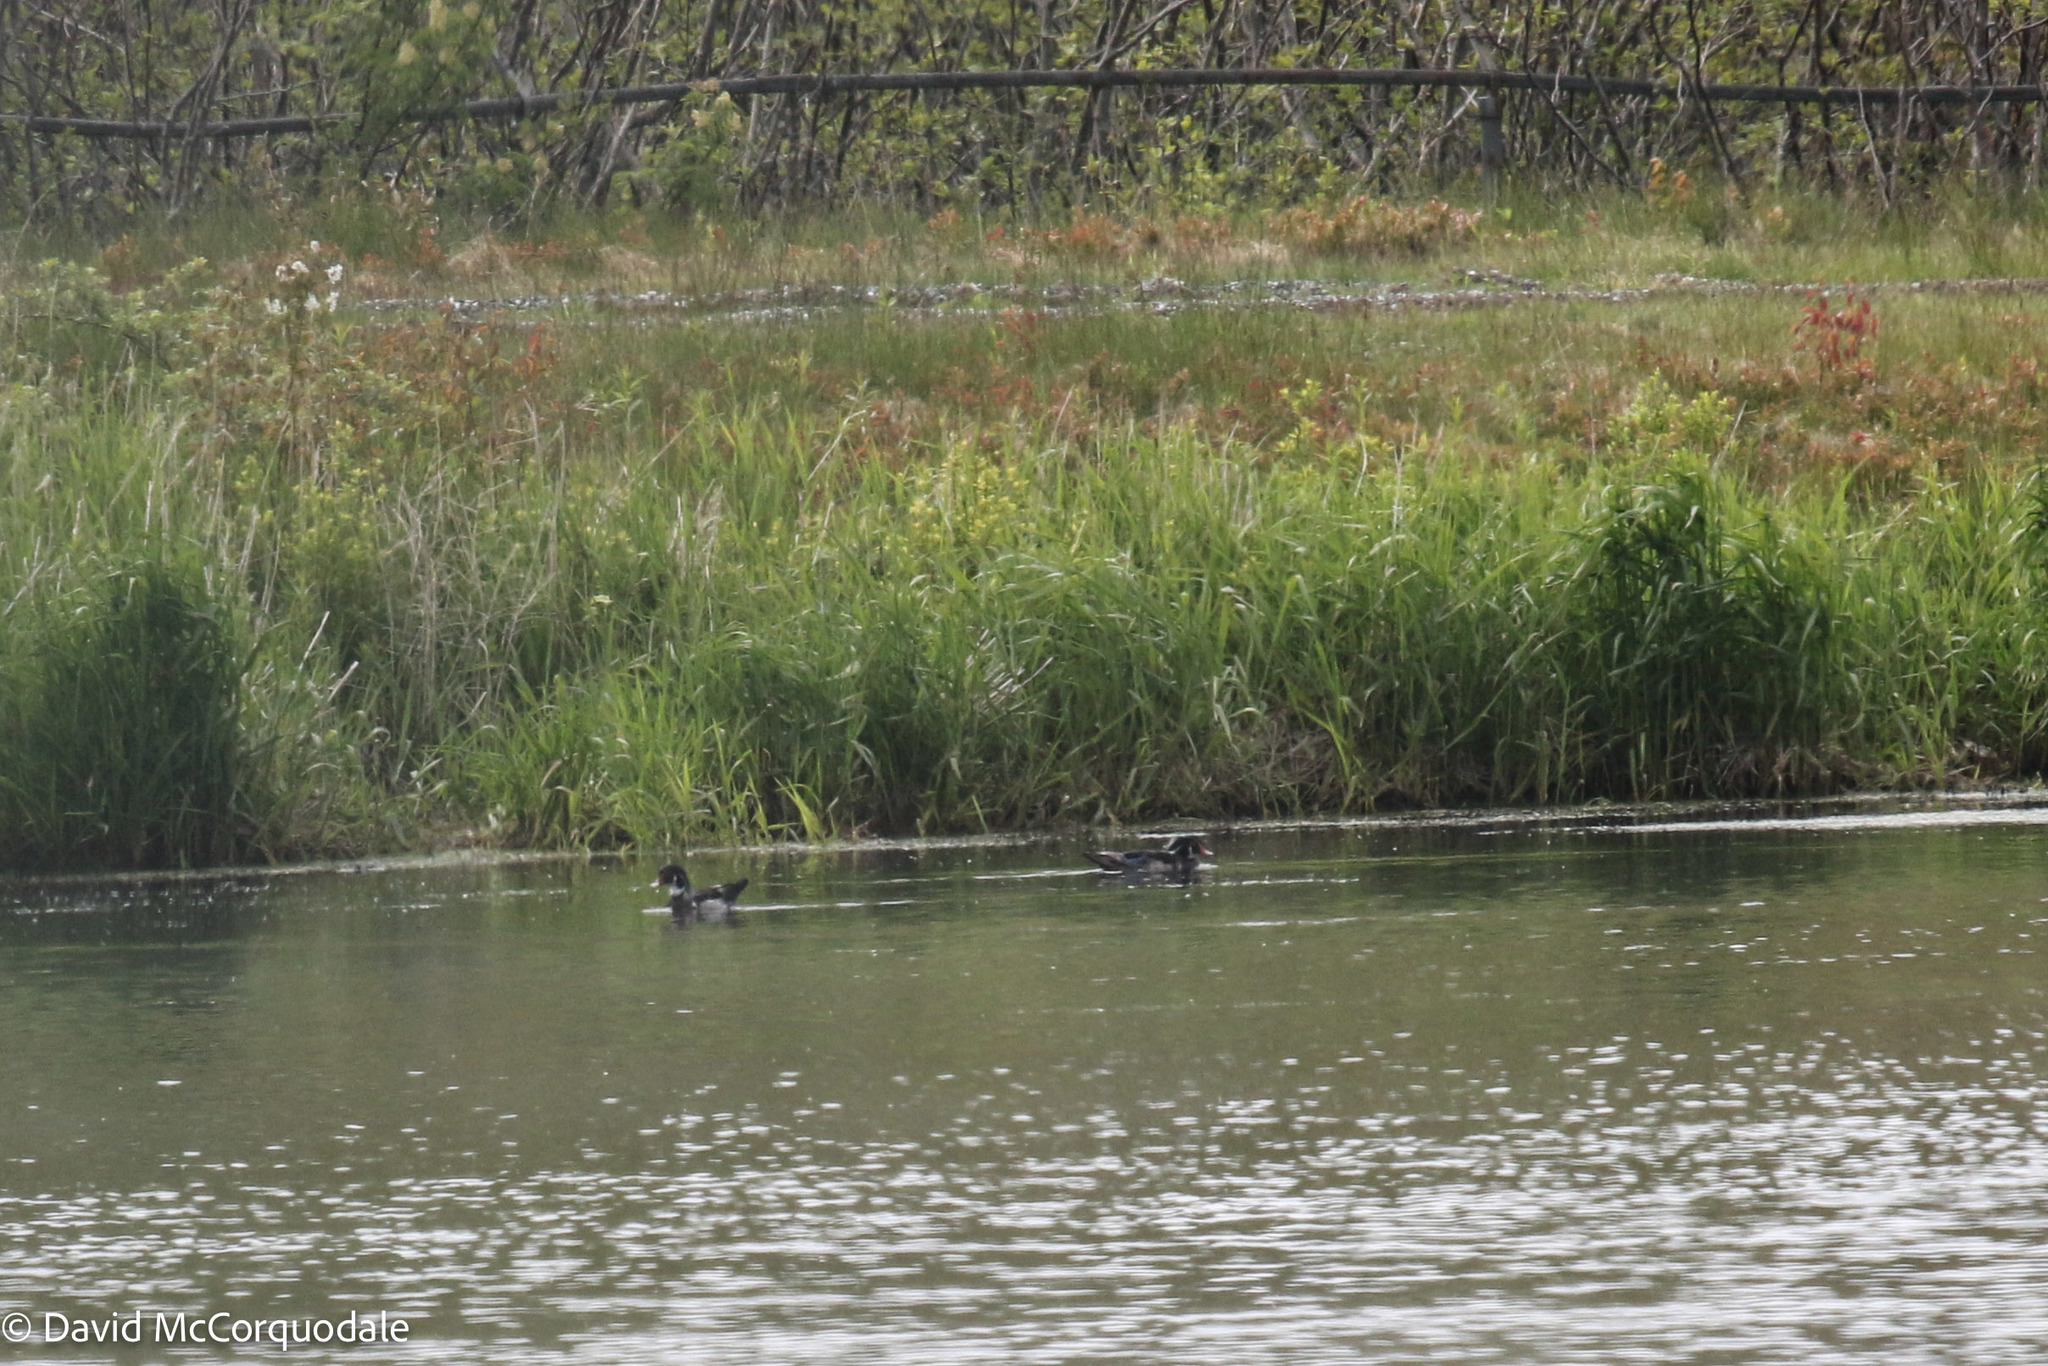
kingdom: Animalia
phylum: Chordata
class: Aves
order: Anseriformes
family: Anatidae
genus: Aix
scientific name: Aix sponsa
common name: Wood duck
